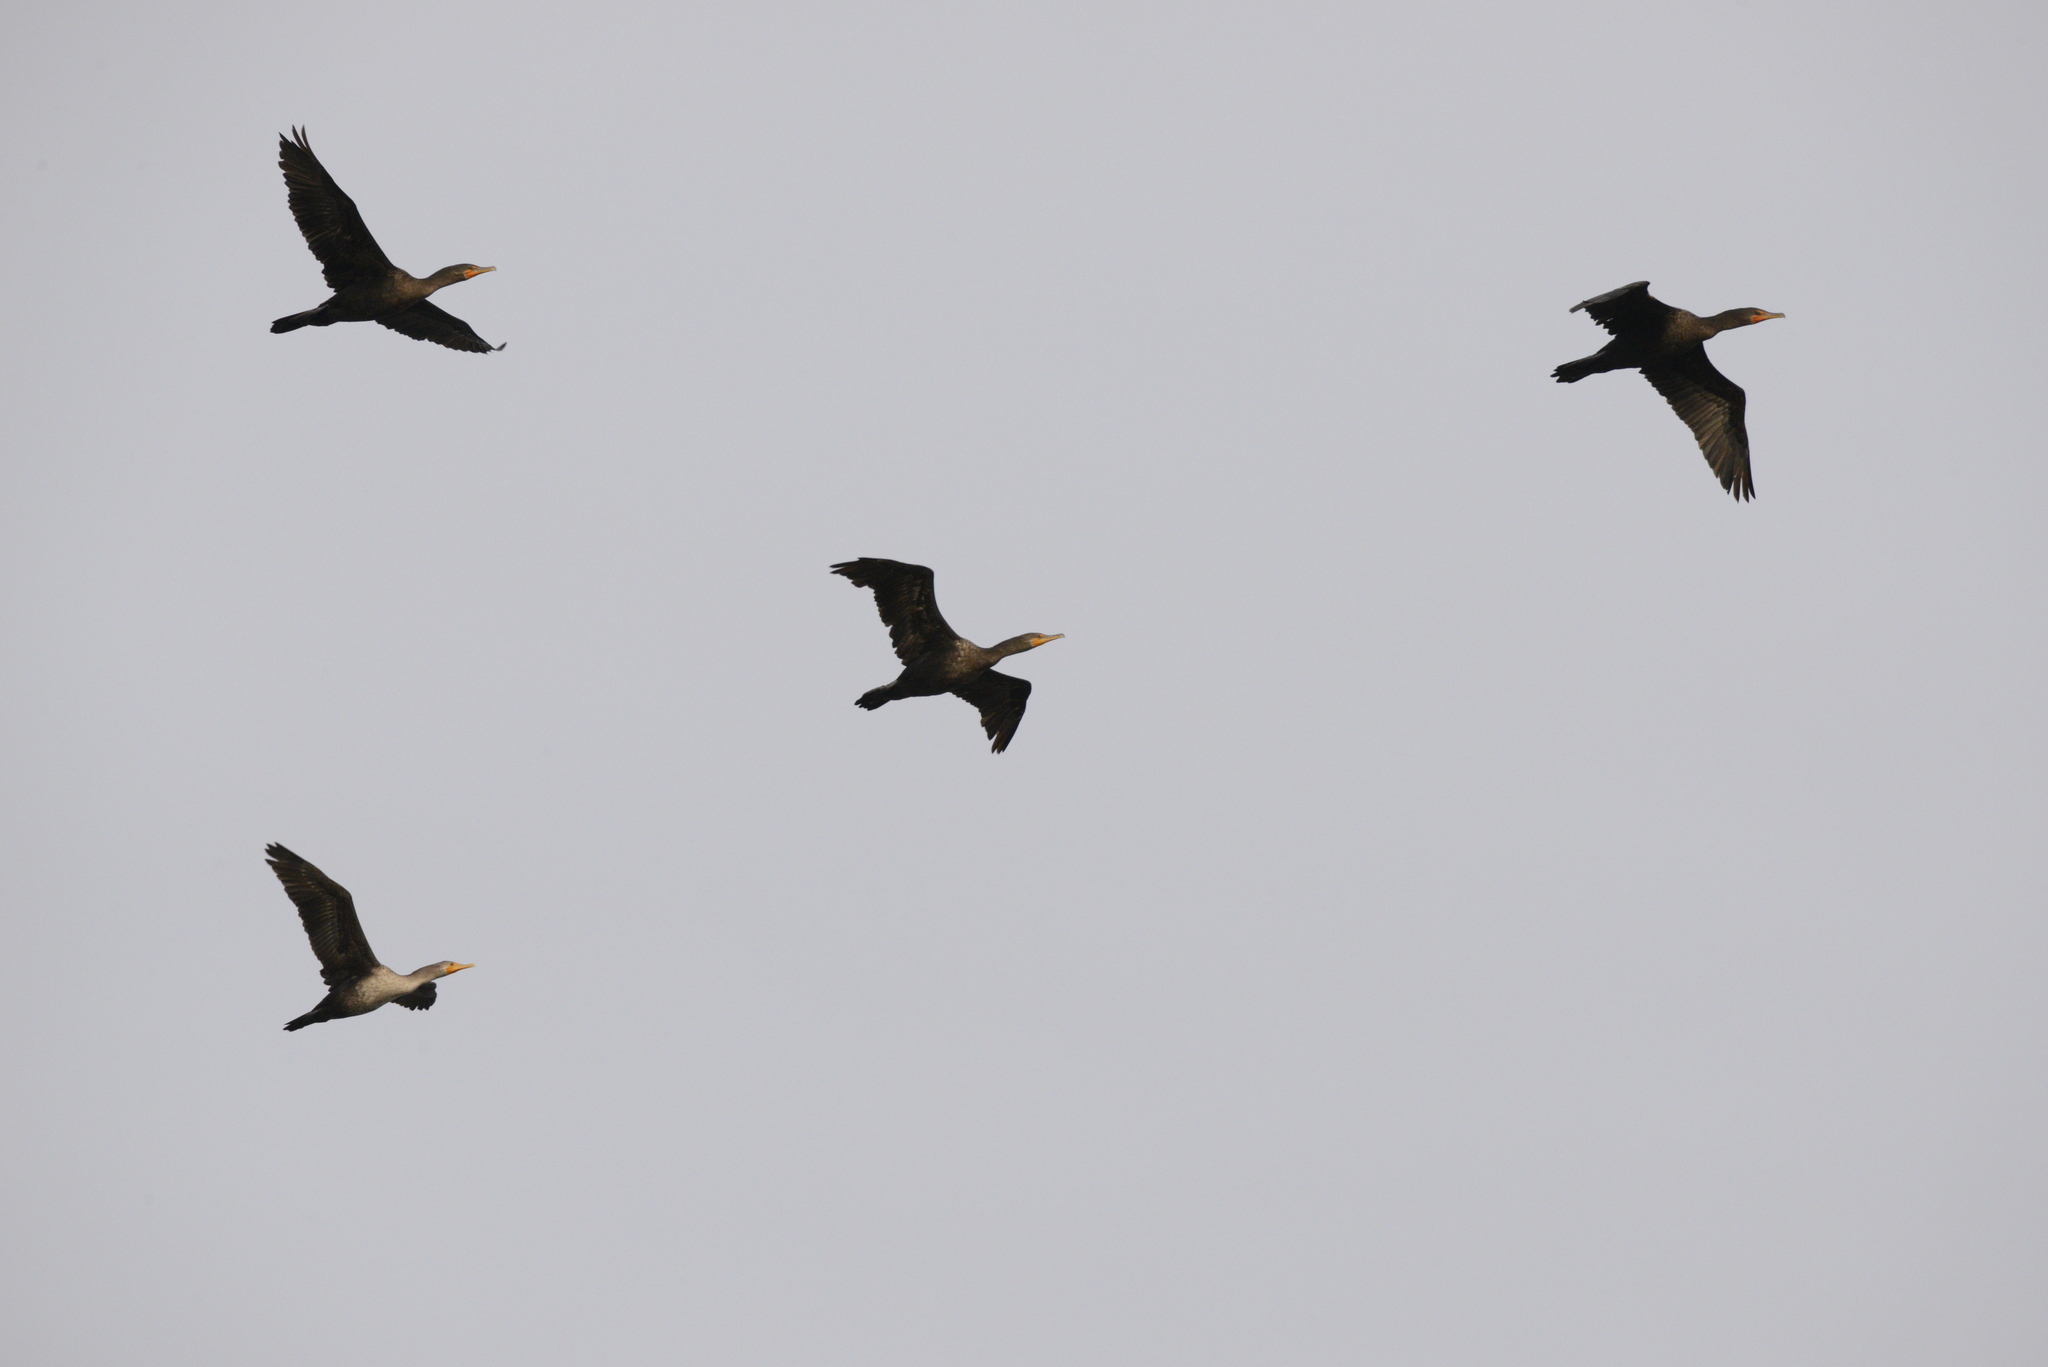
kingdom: Animalia
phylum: Chordata
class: Aves
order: Suliformes
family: Phalacrocoracidae
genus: Phalacrocorax
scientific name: Phalacrocorax auritus
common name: Double-crested cormorant
